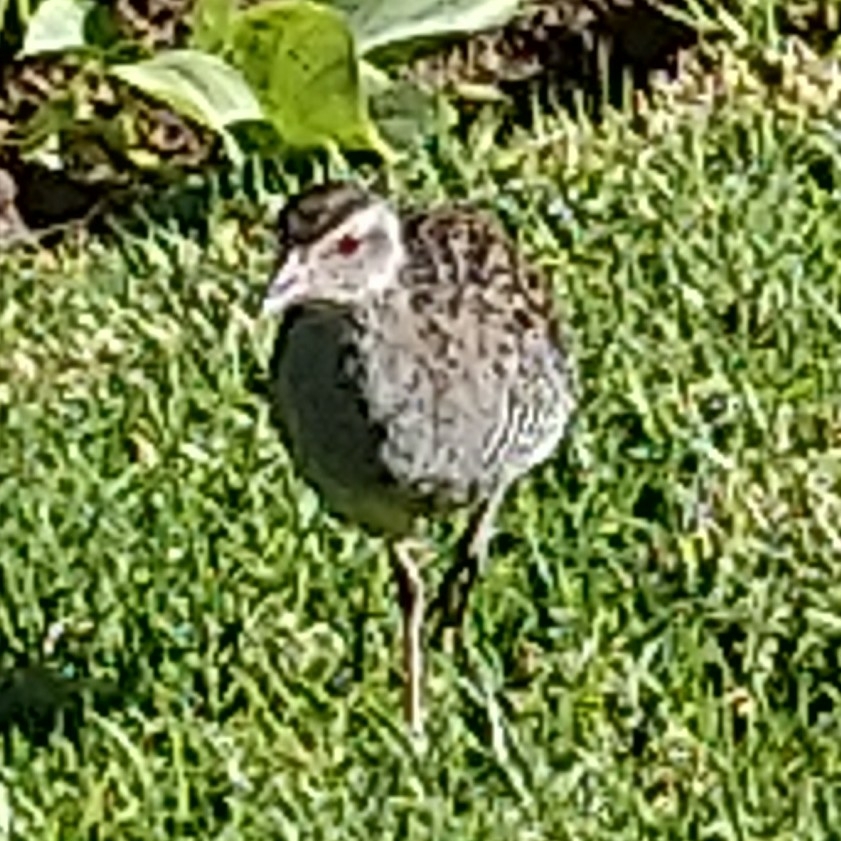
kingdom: Animalia
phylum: Chordata
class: Aves
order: Gruiformes
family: Rallidae
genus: Crex
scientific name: Crex egregia
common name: African crake
